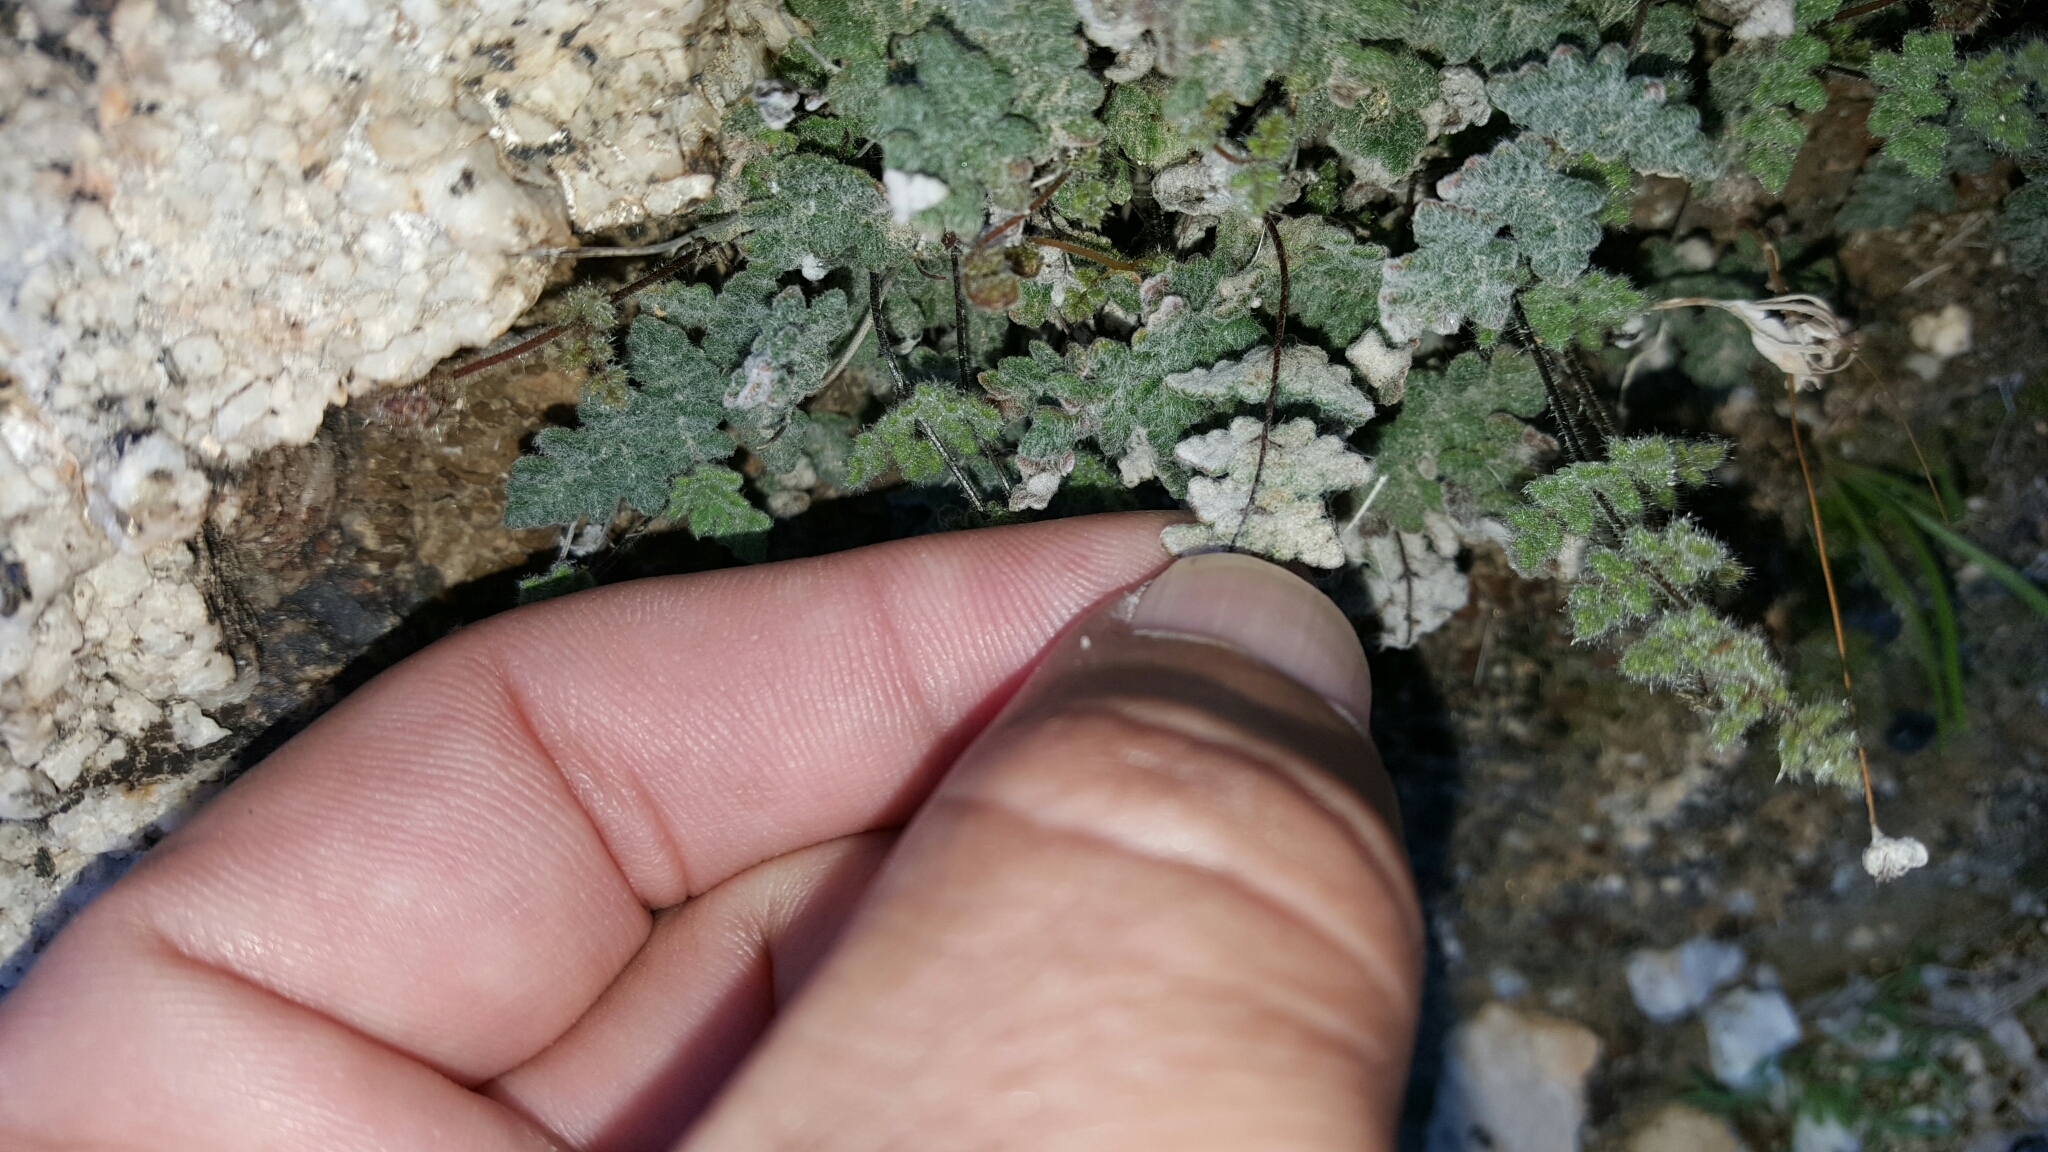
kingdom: Plantae
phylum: Tracheophyta
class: Polypodiopsida
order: Polypodiales
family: Pteridaceae
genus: Myriopteris
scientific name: Myriopteris parryi
